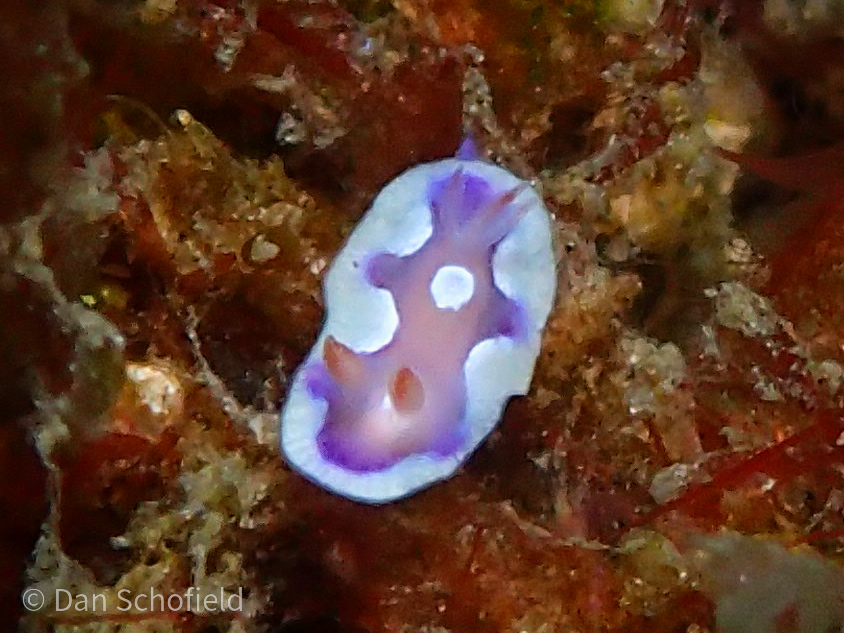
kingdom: Animalia
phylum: Mollusca
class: Gastropoda
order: Nudibranchia
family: Chromodorididae
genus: Mexichromis
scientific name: Mexichromis pusilla
